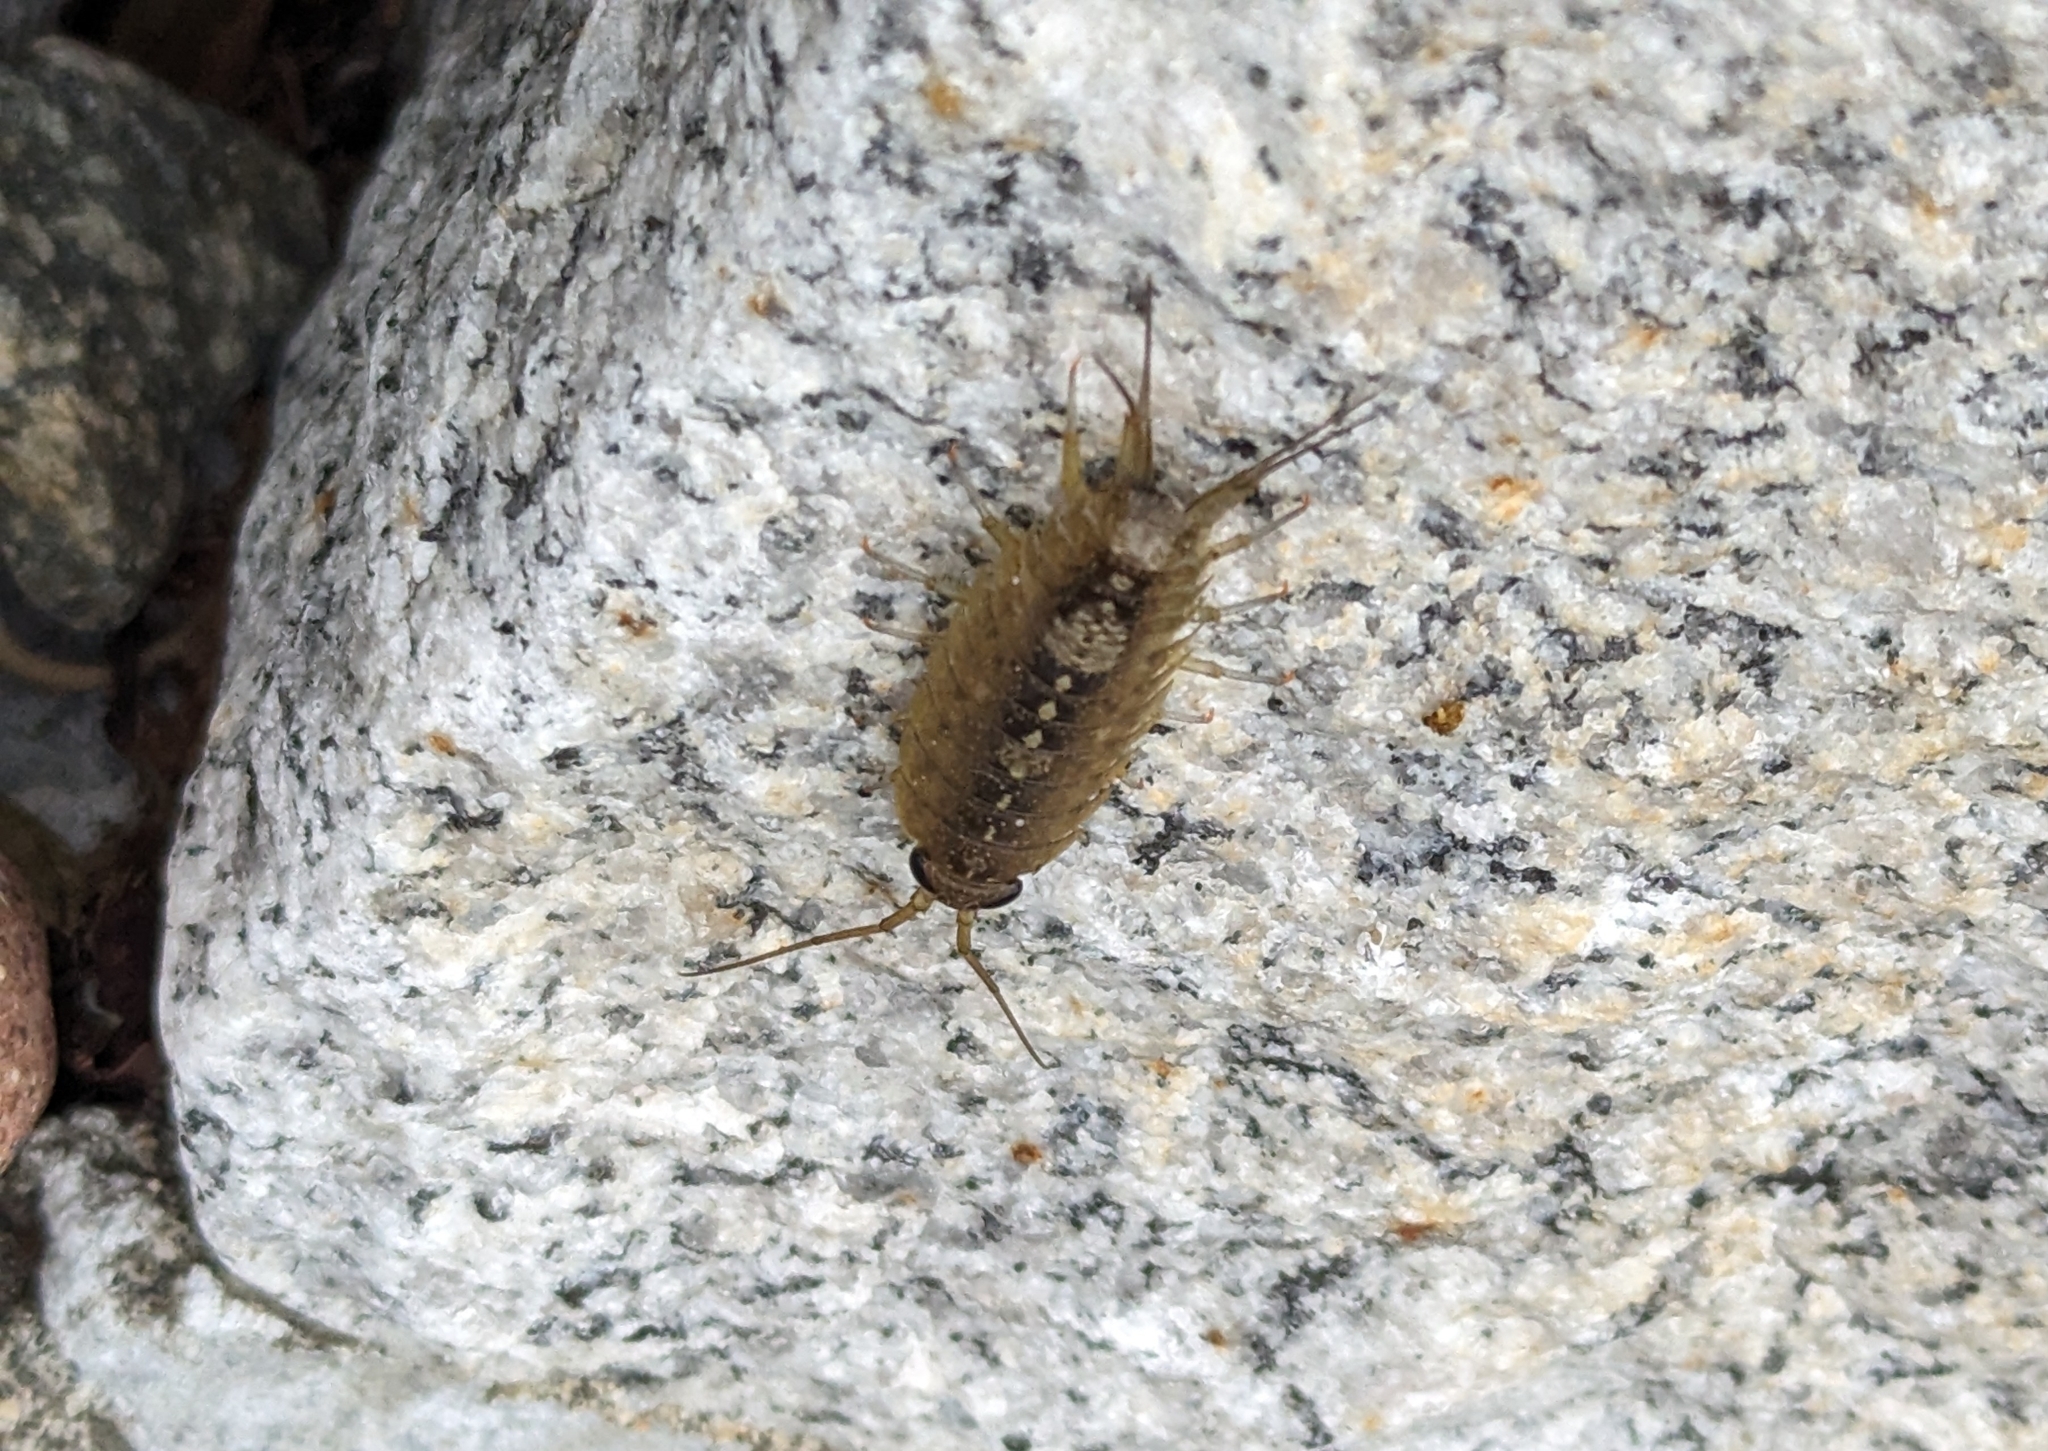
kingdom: Animalia
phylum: Arthropoda
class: Malacostraca
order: Isopoda
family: Ligiidae
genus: Ligia
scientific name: Ligia occidentalis
